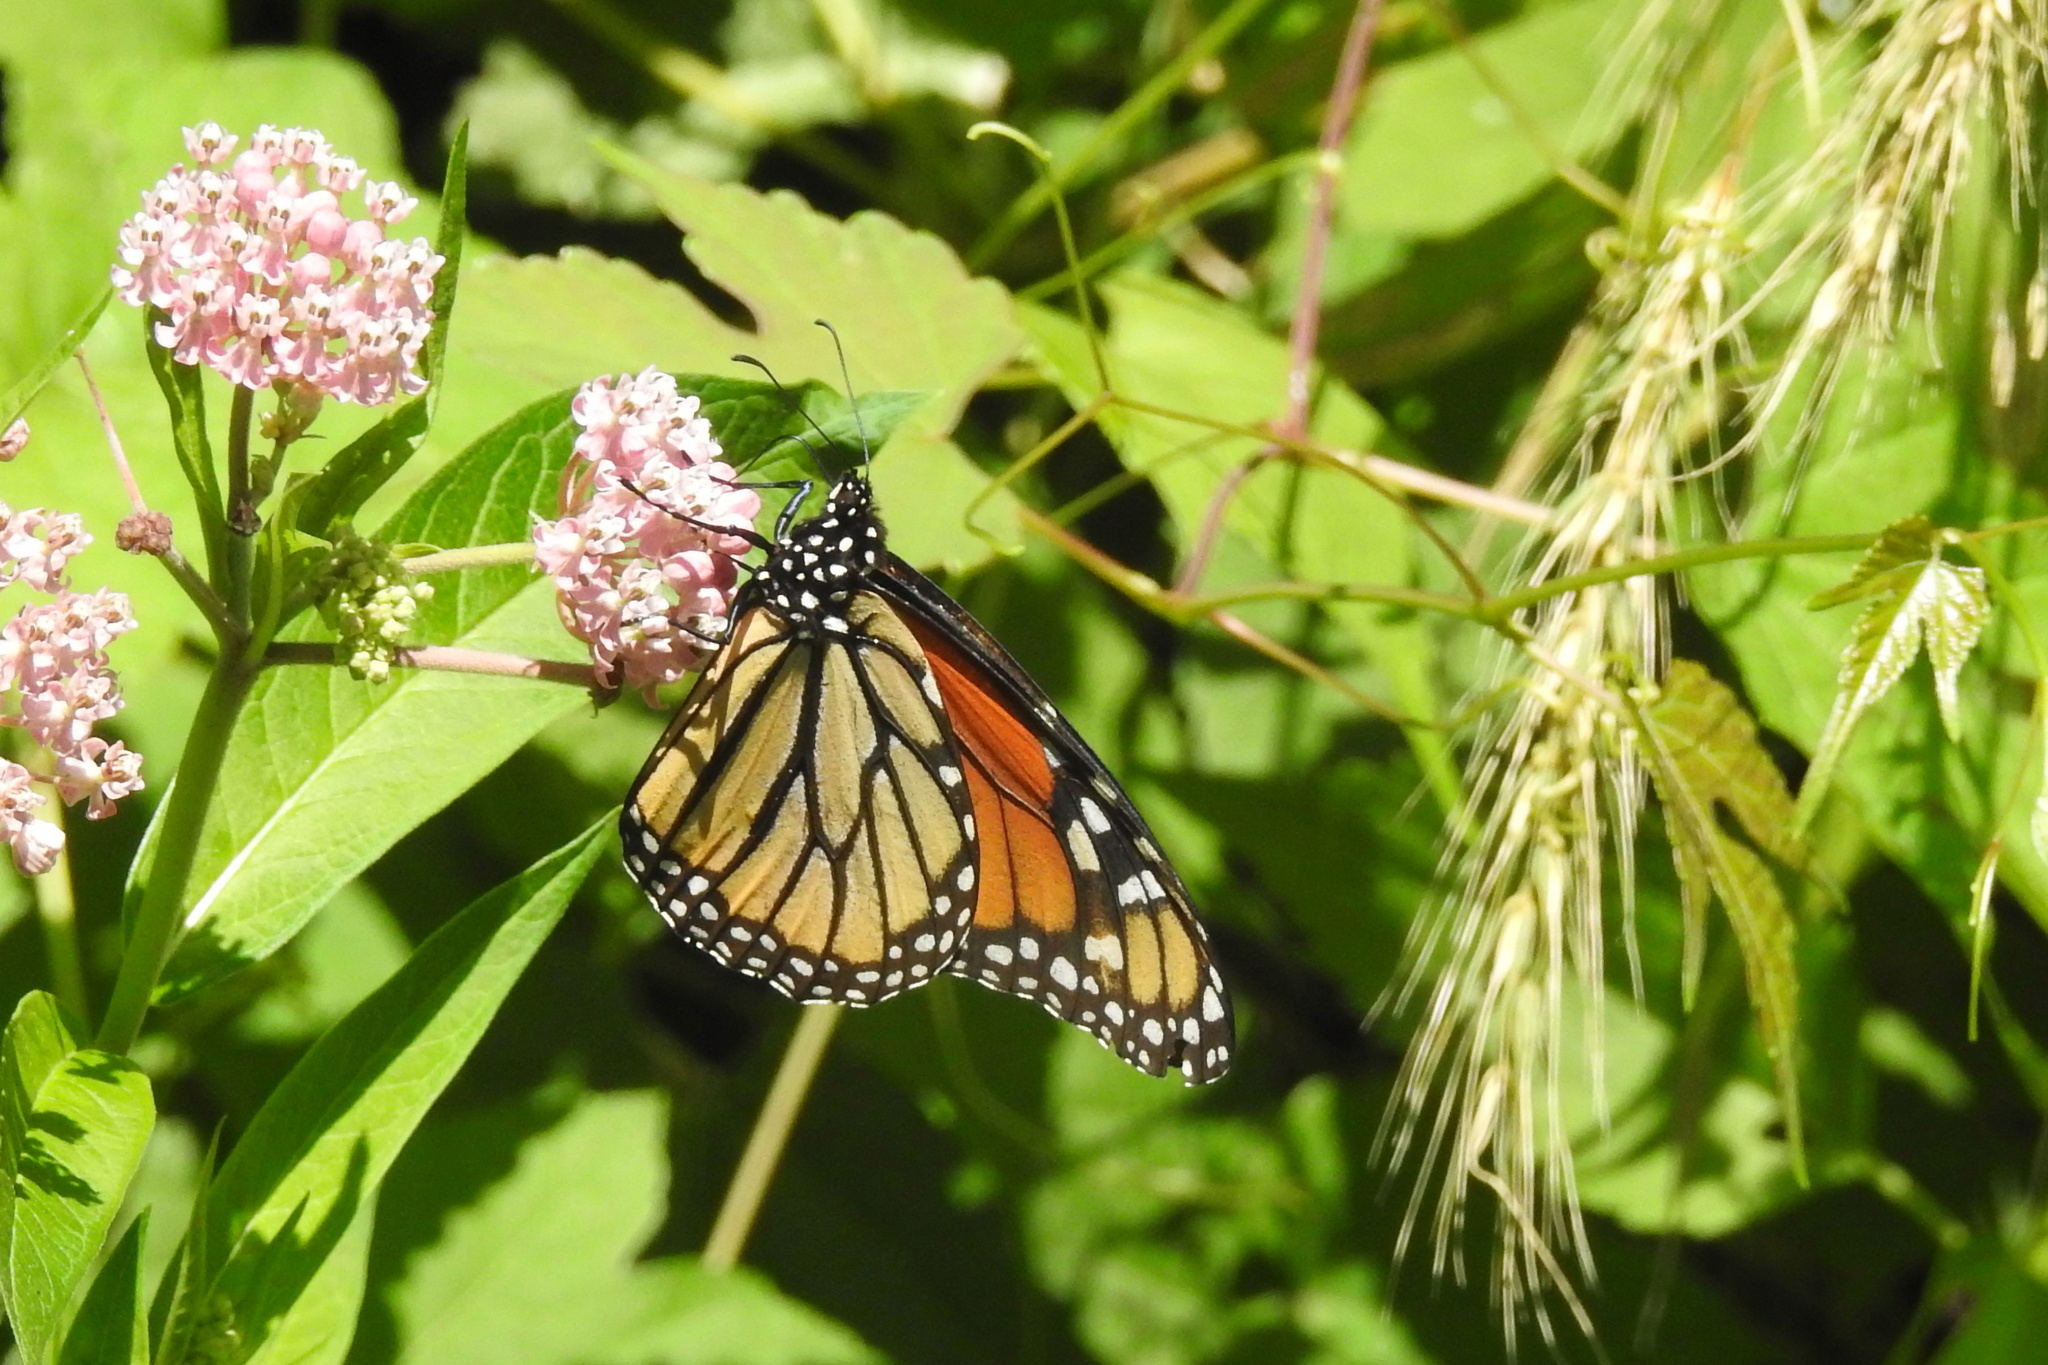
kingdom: Animalia
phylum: Arthropoda
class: Insecta
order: Lepidoptera
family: Nymphalidae
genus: Danaus
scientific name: Danaus plexippus
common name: Monarch
